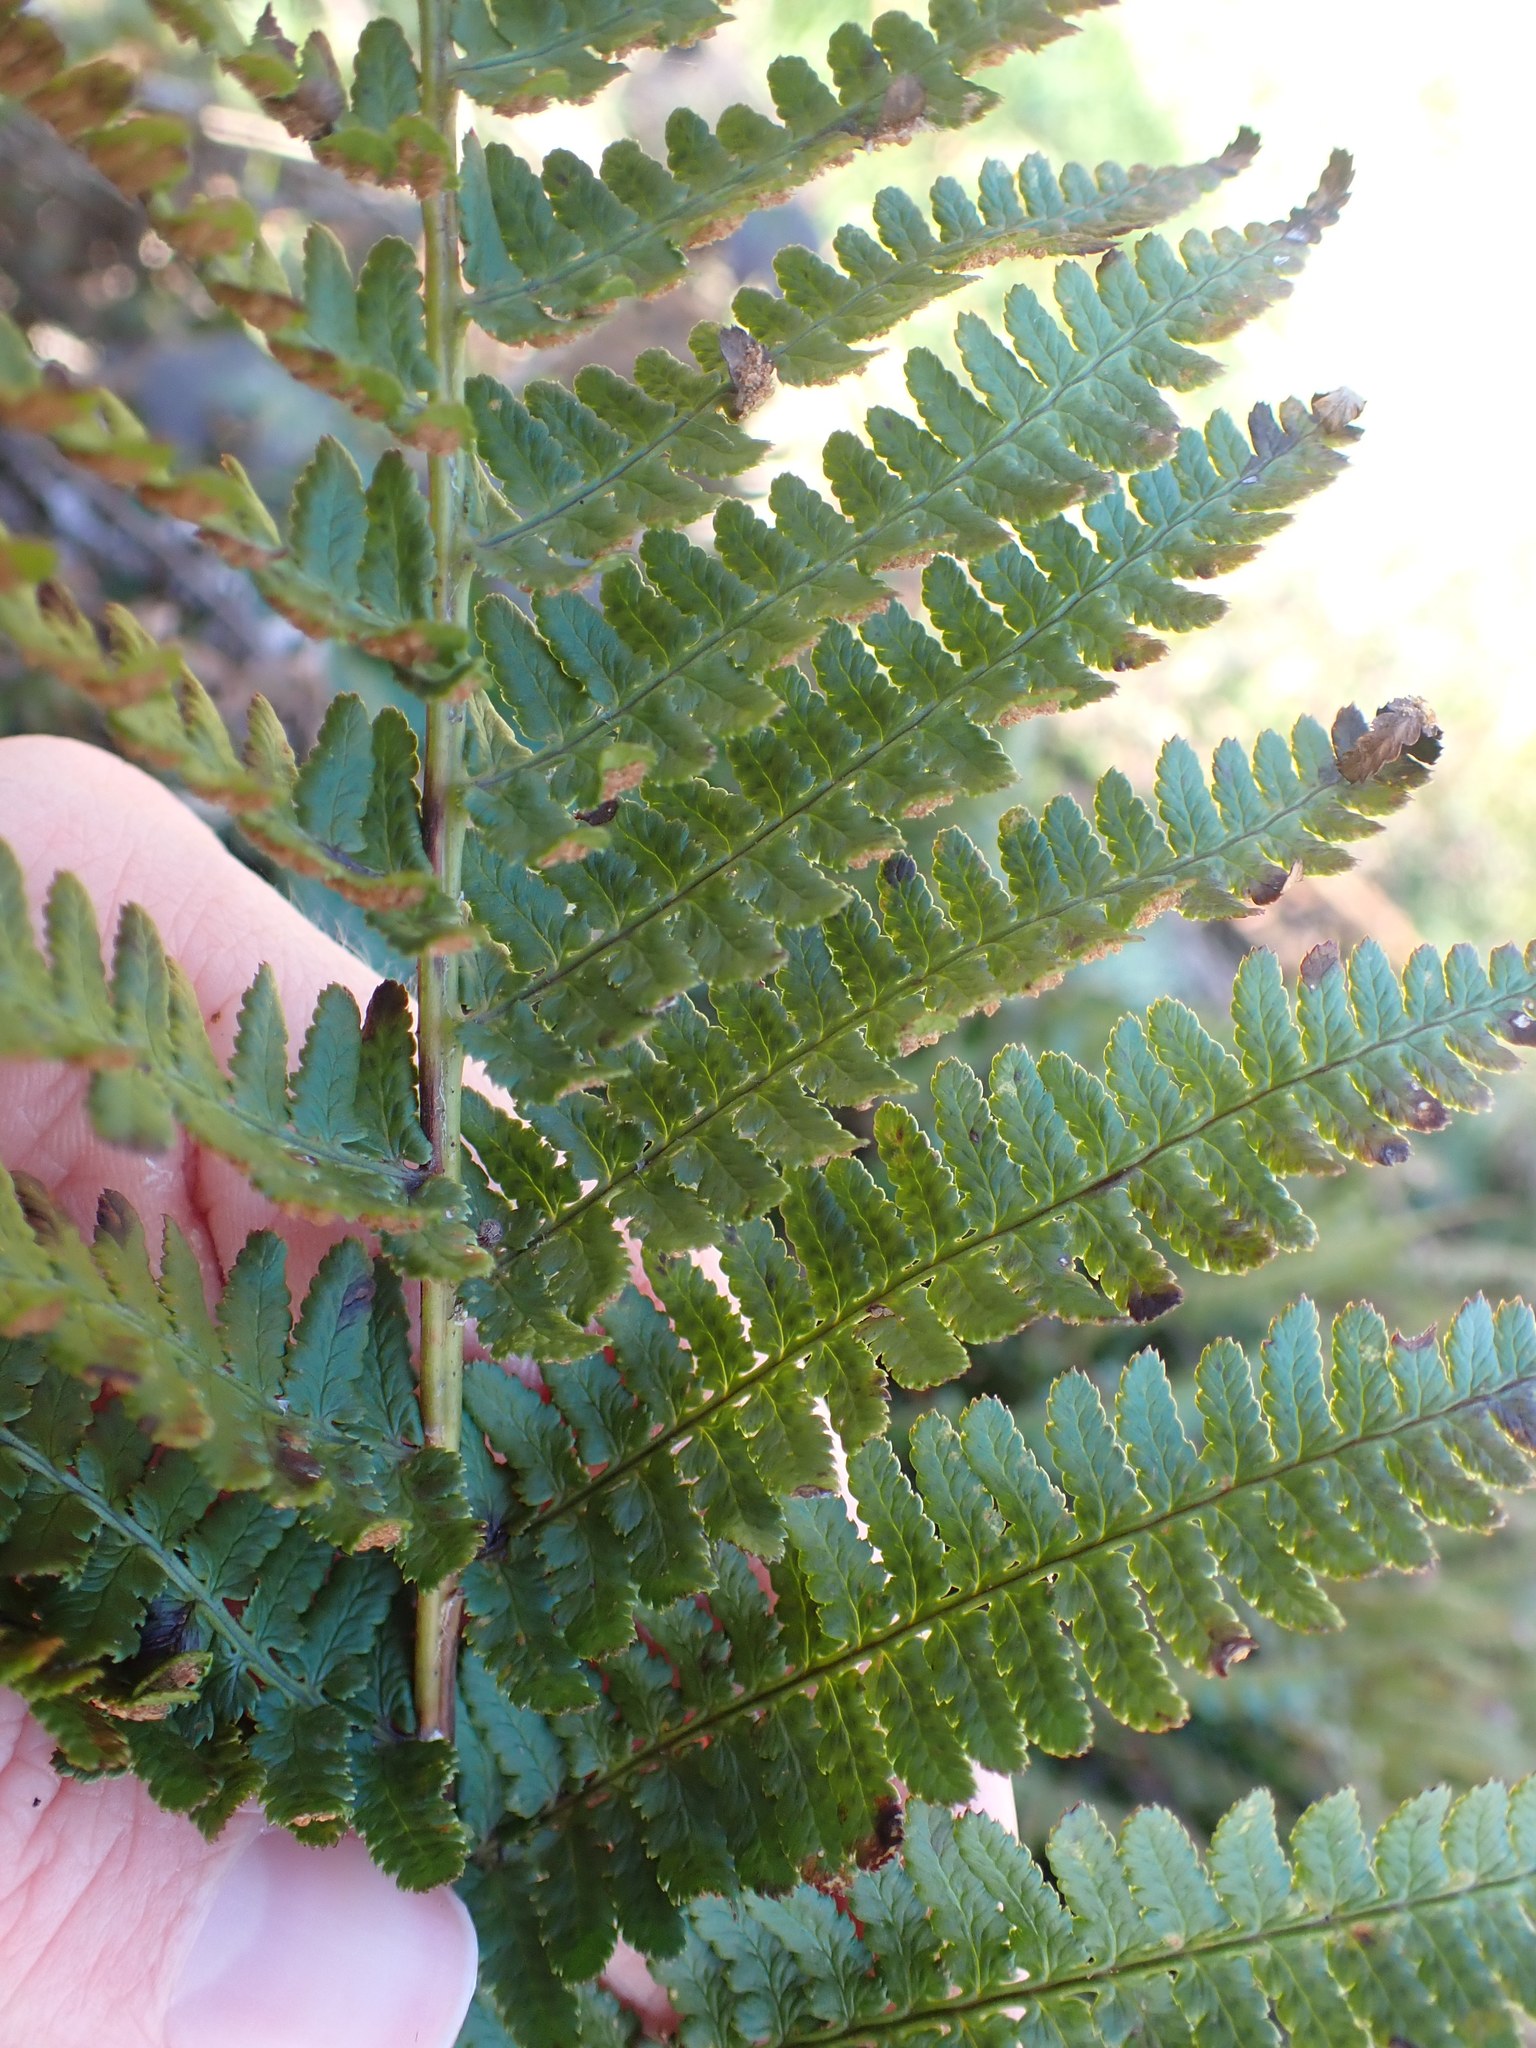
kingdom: Plantae
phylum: Tracheophyta
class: Polypodiopsida
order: Polypodiales
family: Dryopteridaceae
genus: Dryopteris
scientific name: Dryopteris arguta
